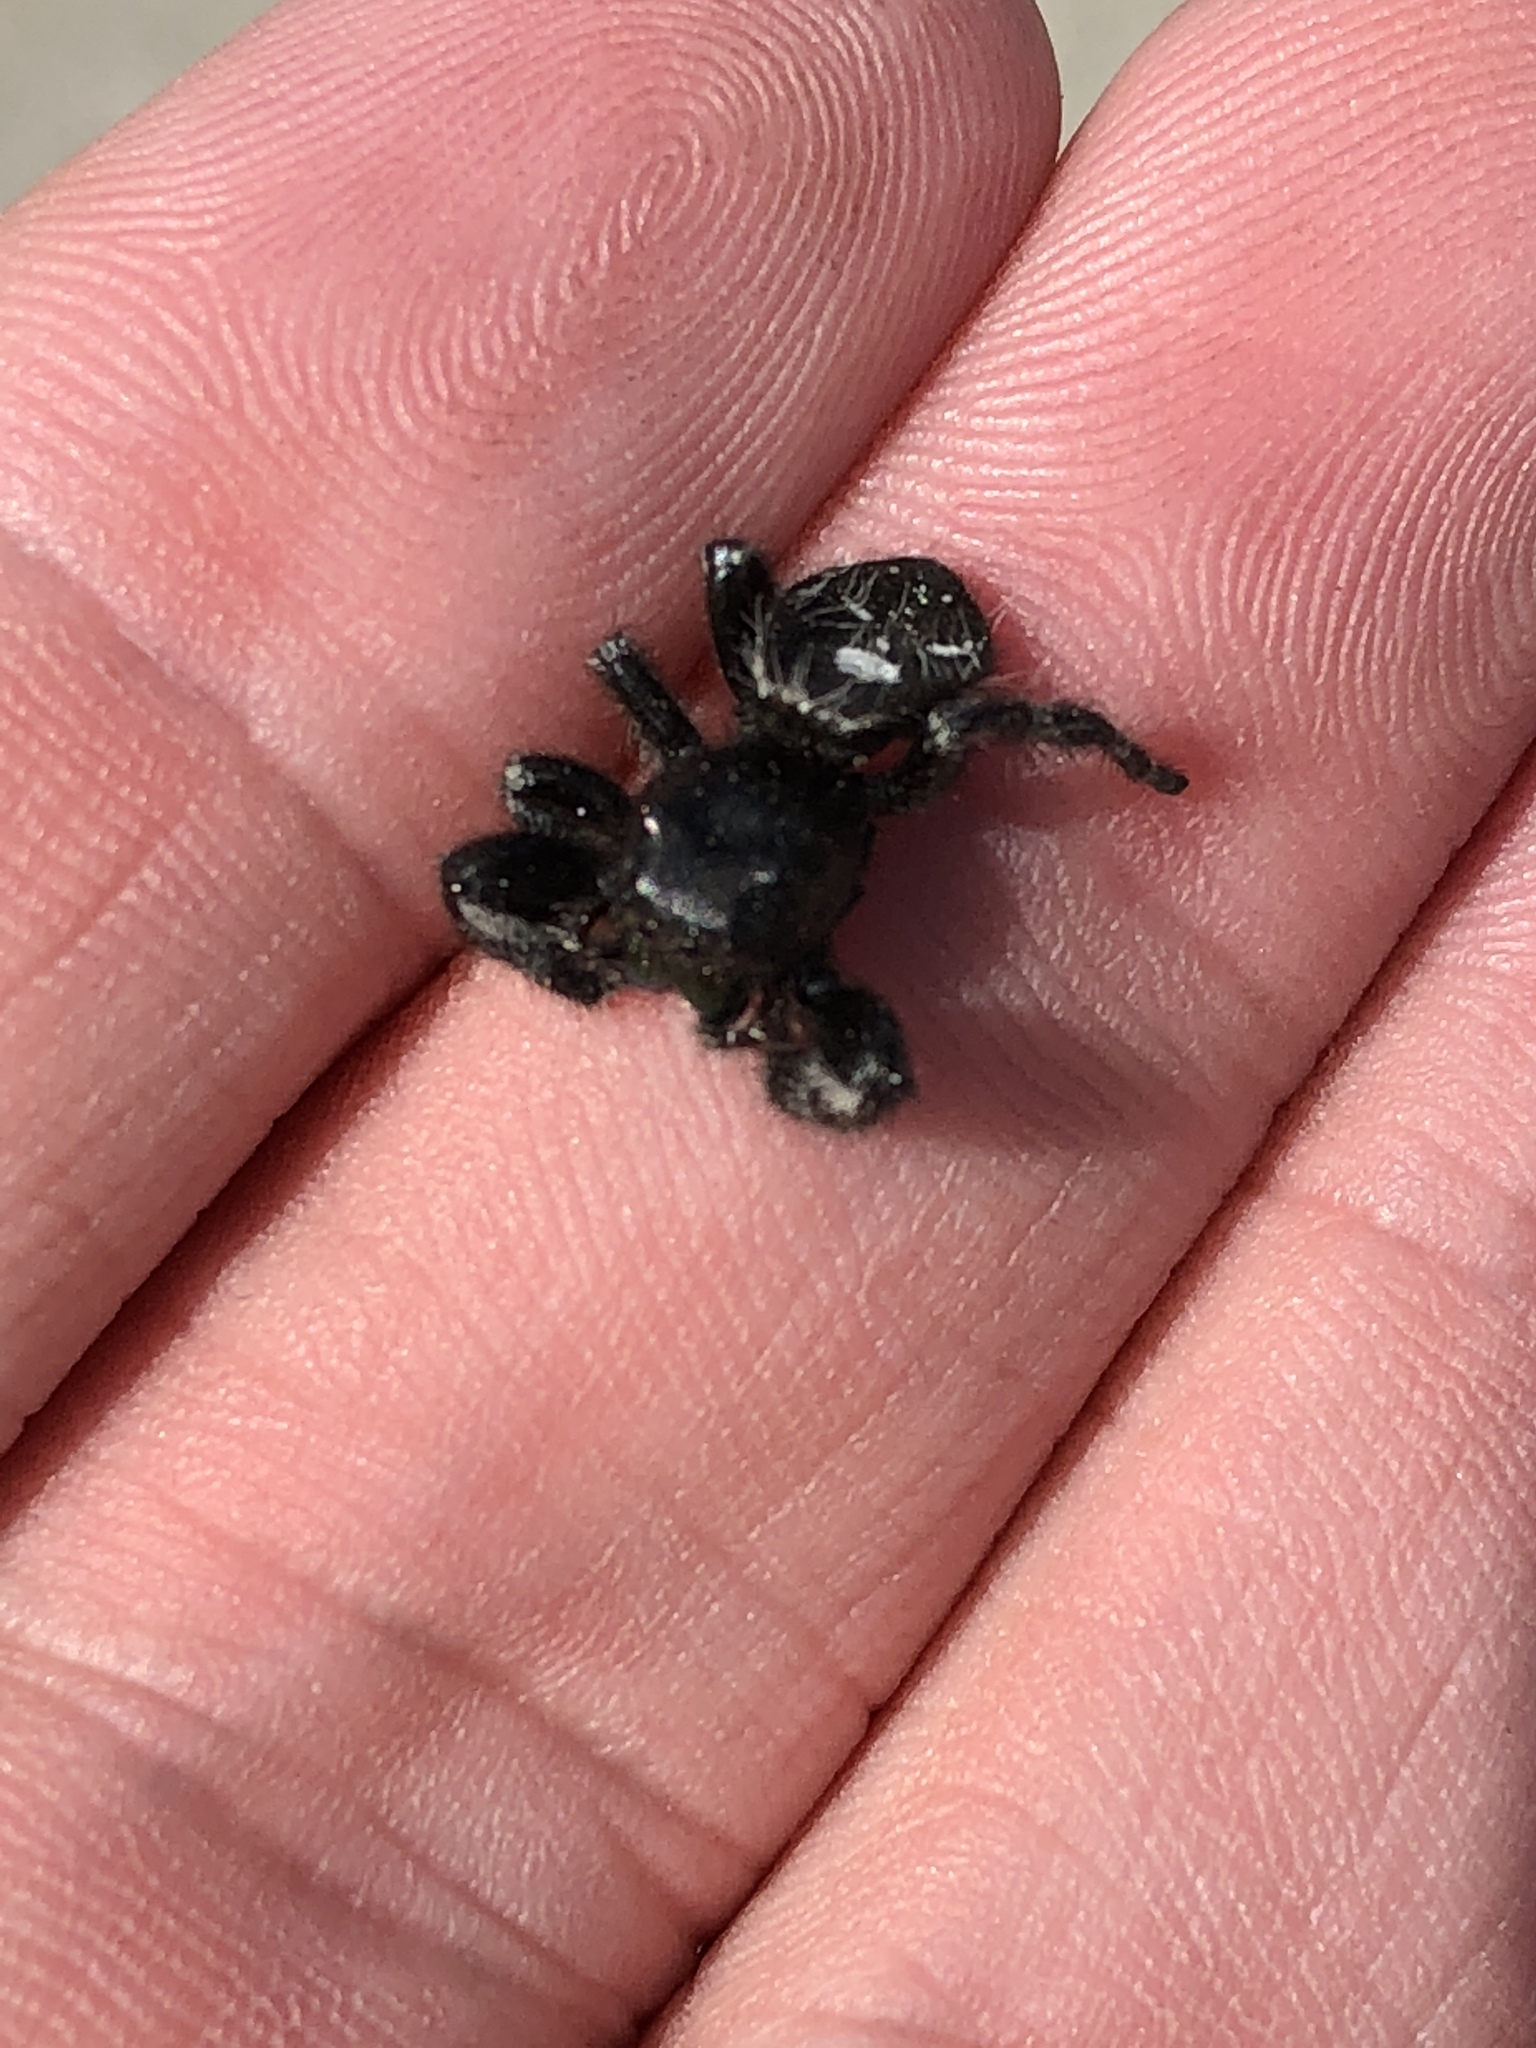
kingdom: Animalia
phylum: Arthropoda
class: Arachnida
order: Araneae
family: Salticidae
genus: Phidippus
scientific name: Phidippus audax
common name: Bold jumper
